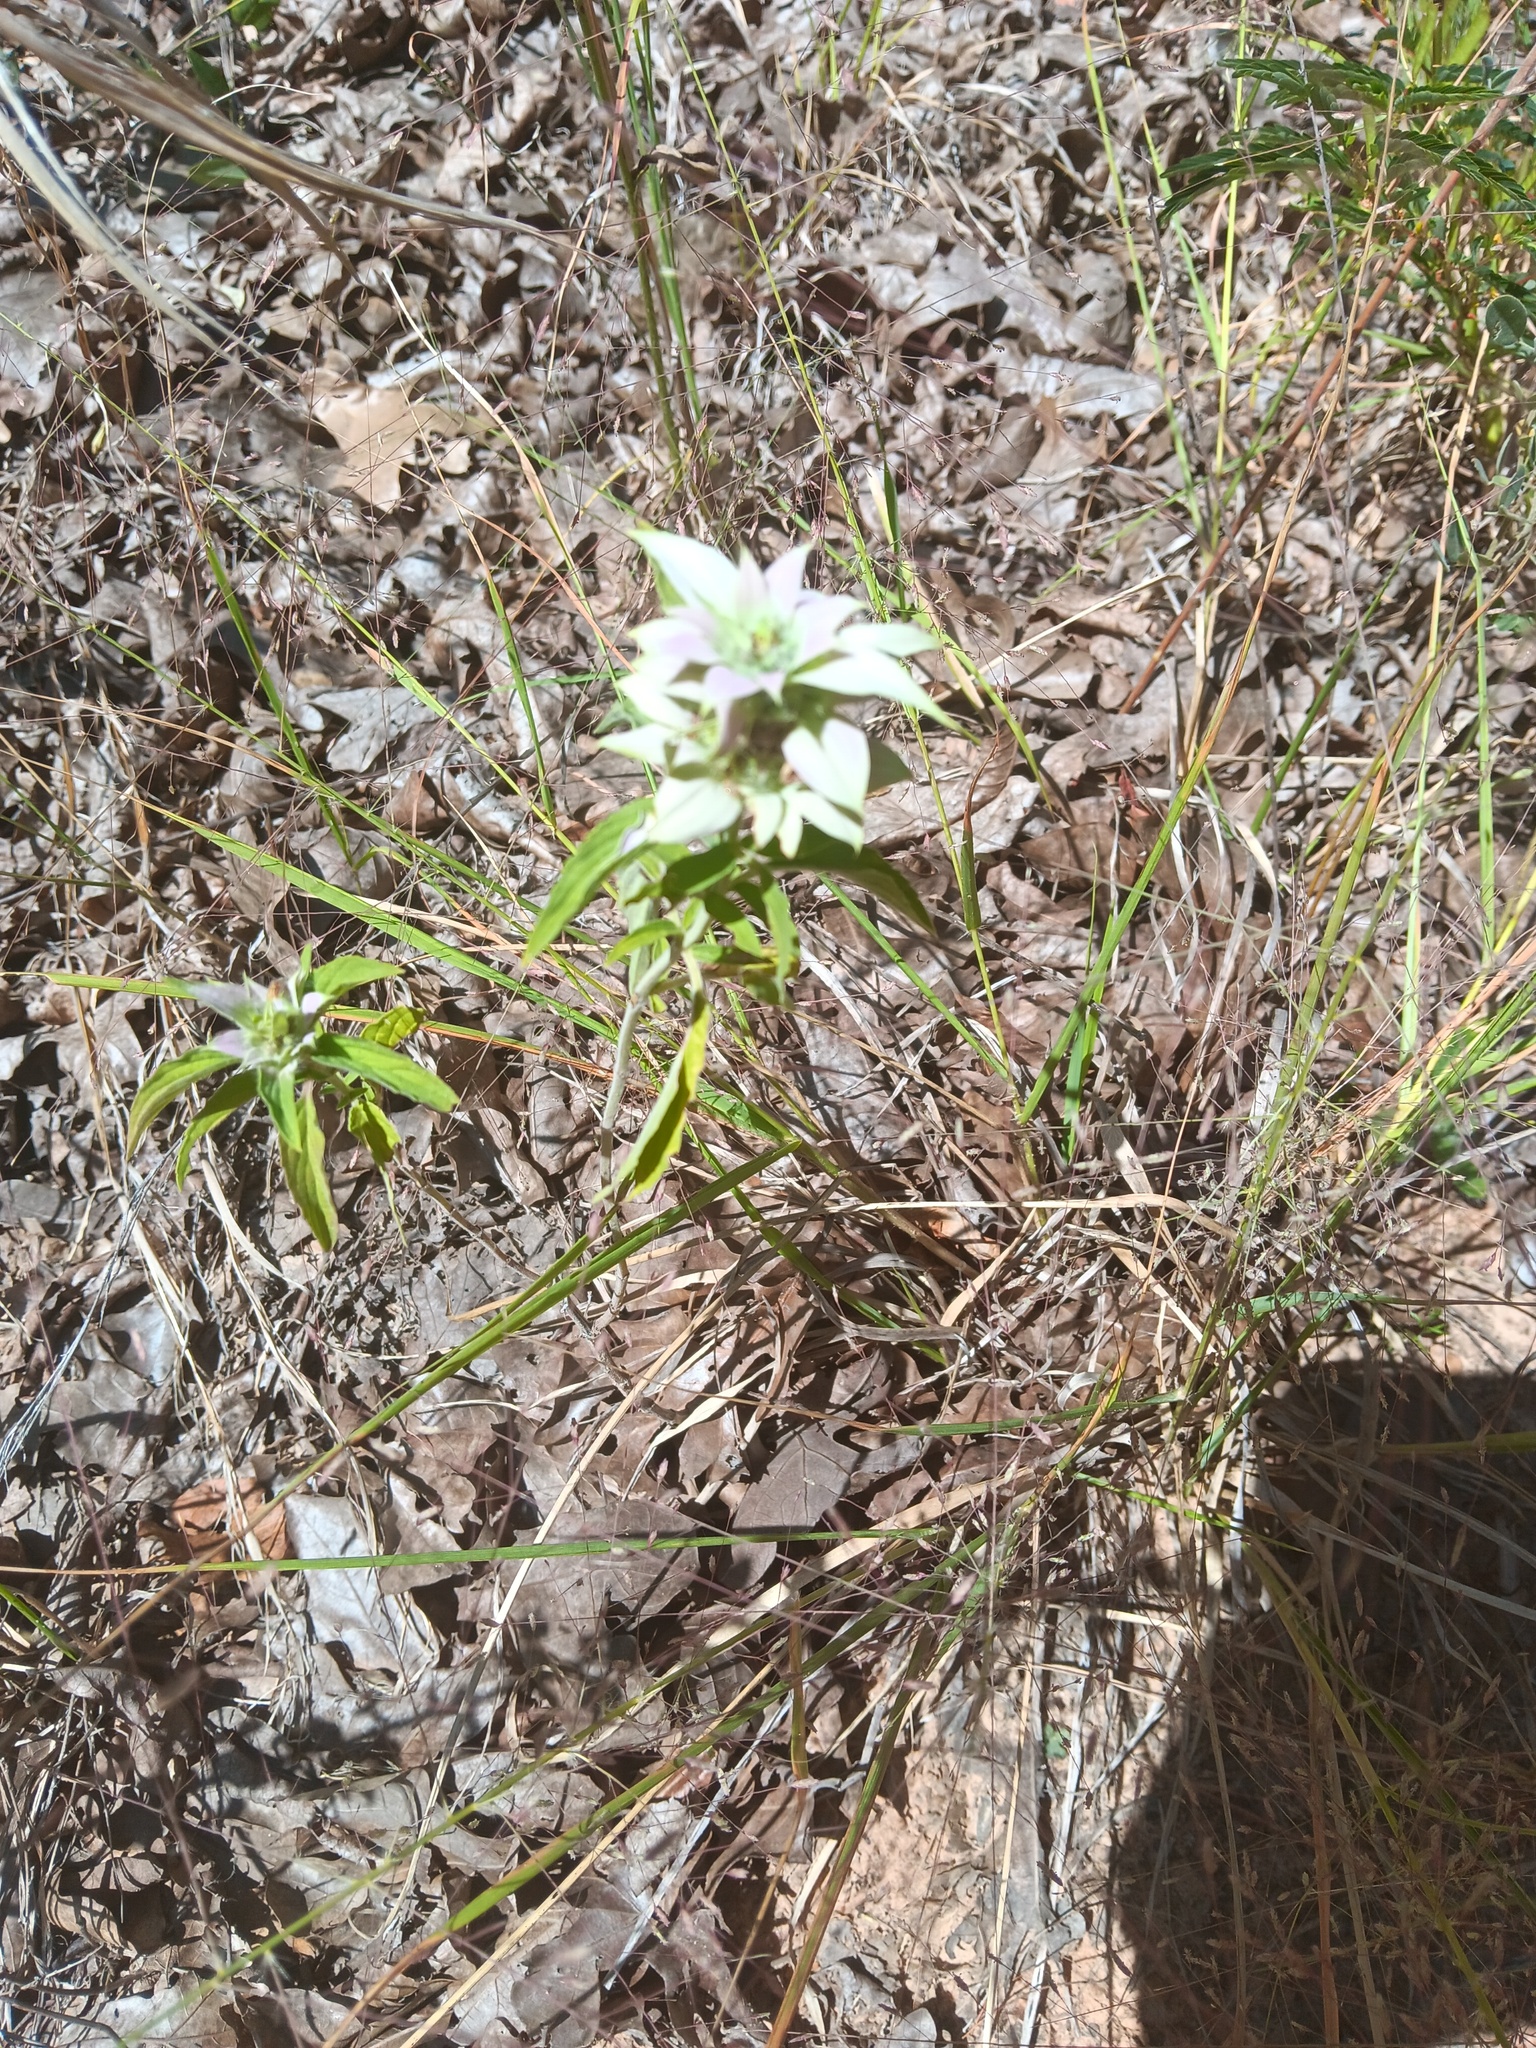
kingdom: Plantae
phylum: Tracheophyta
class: Magnoliopsida
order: Lamiales
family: Lamiaceae
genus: Monarda
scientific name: Monarda punctata
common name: Dotted monarda
